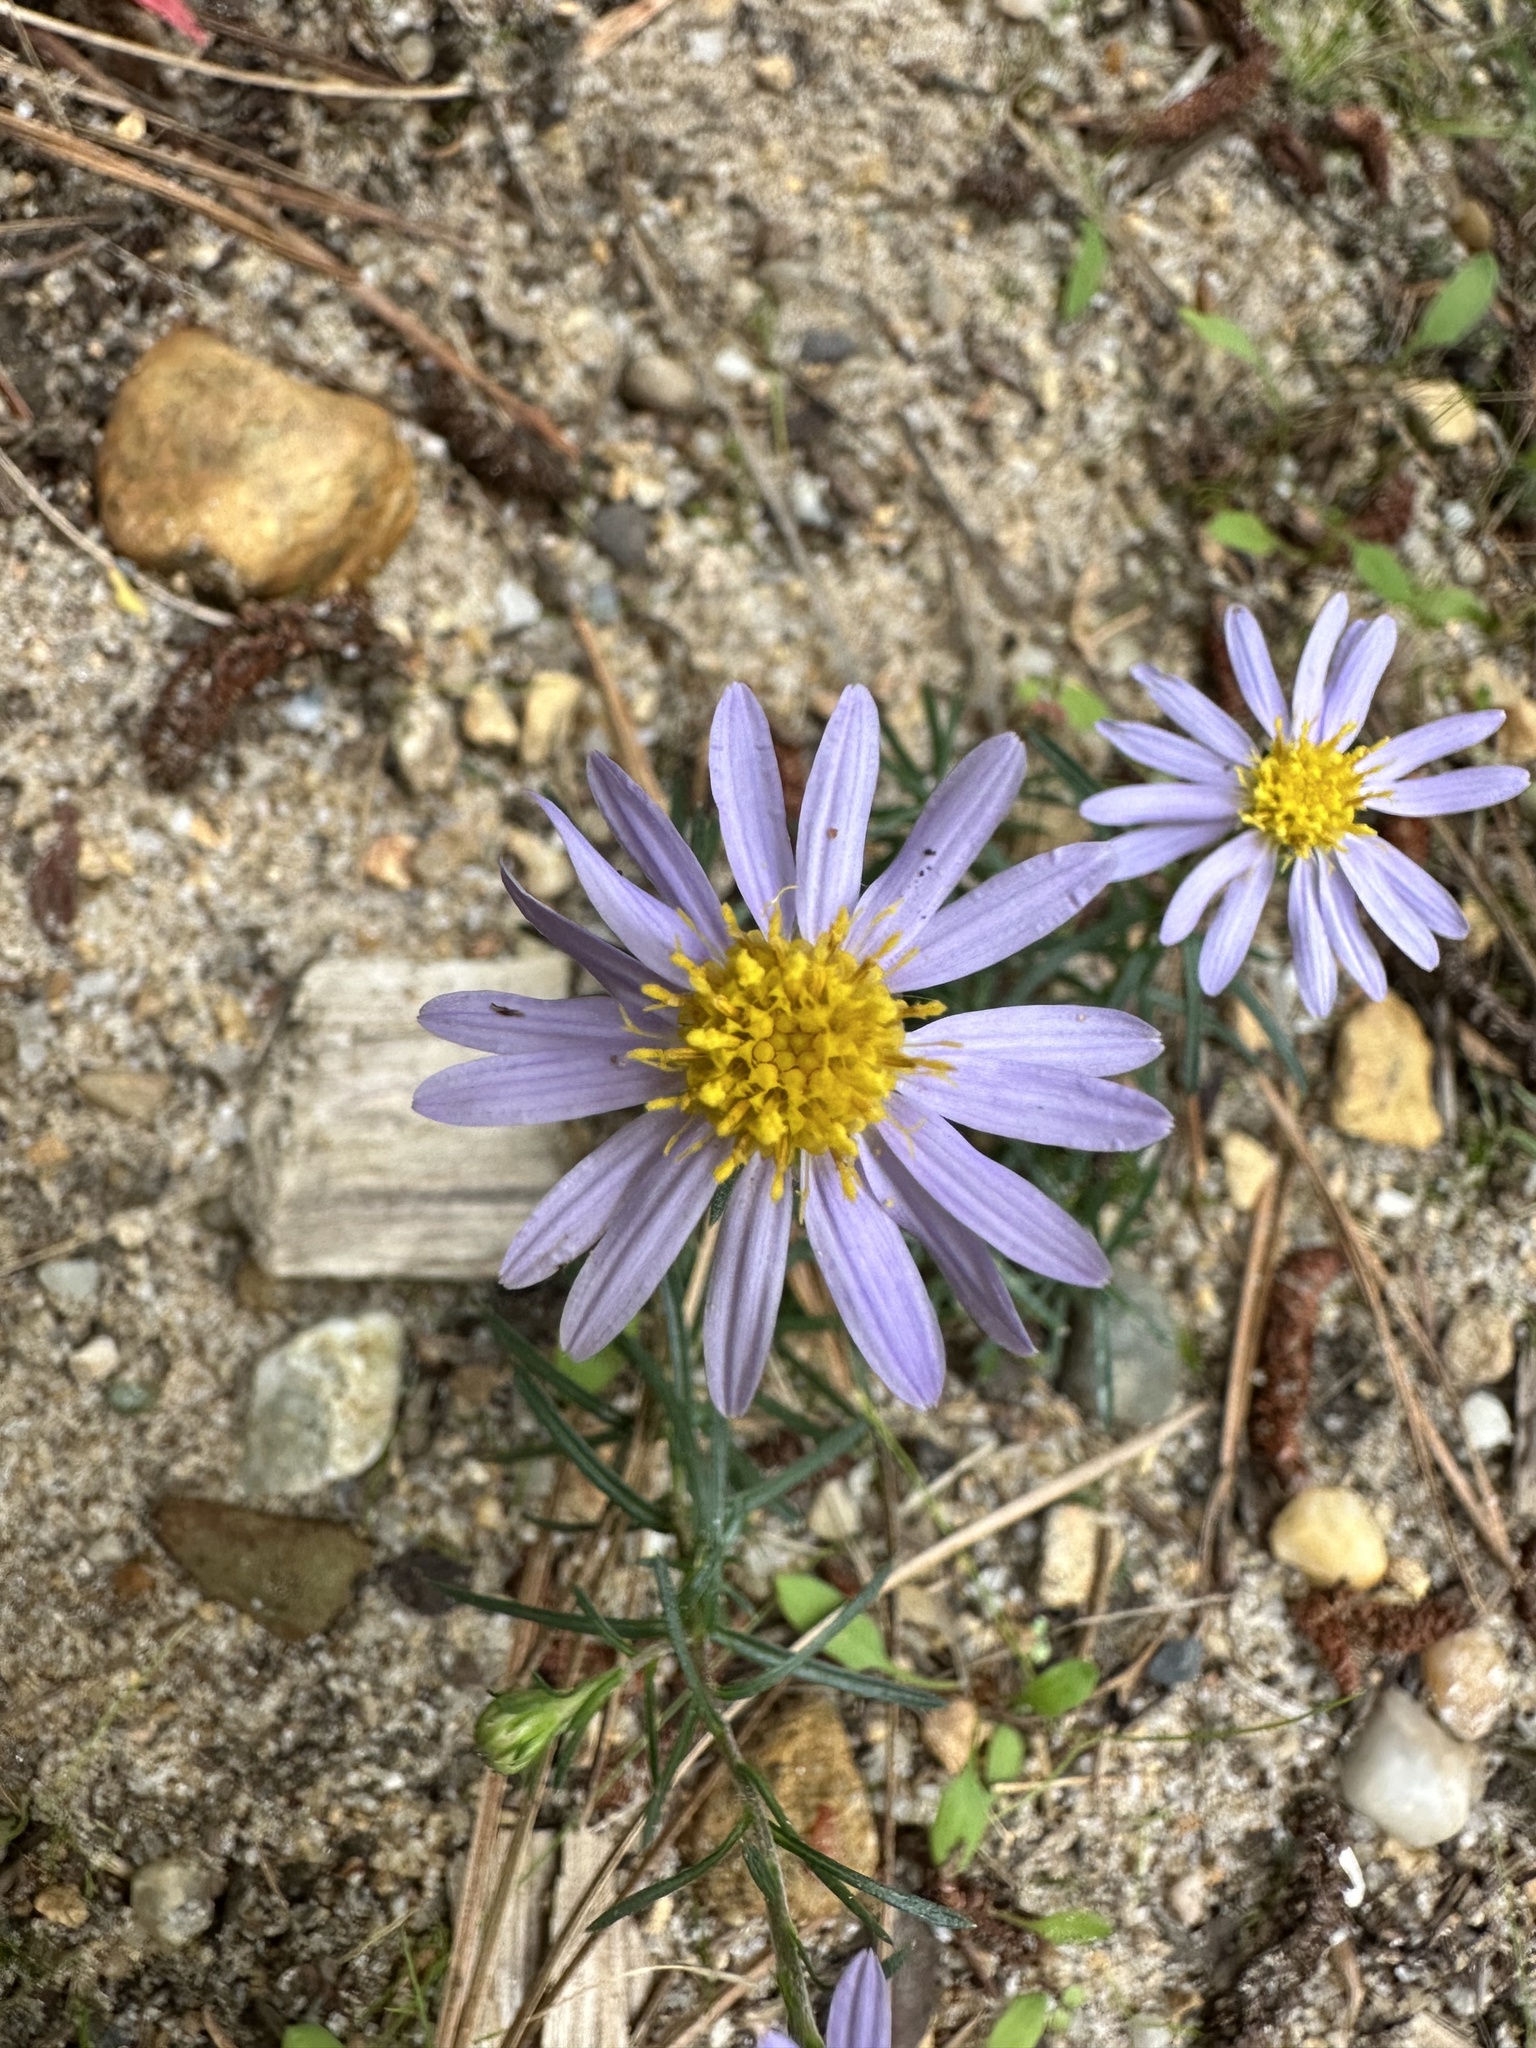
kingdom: Plantae
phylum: Tracheophyta
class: Magnoliopsida
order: Asterales
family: Asteraceae
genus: Ionactis
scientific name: Ionactis linariifolia
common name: Flax-leaf aster
